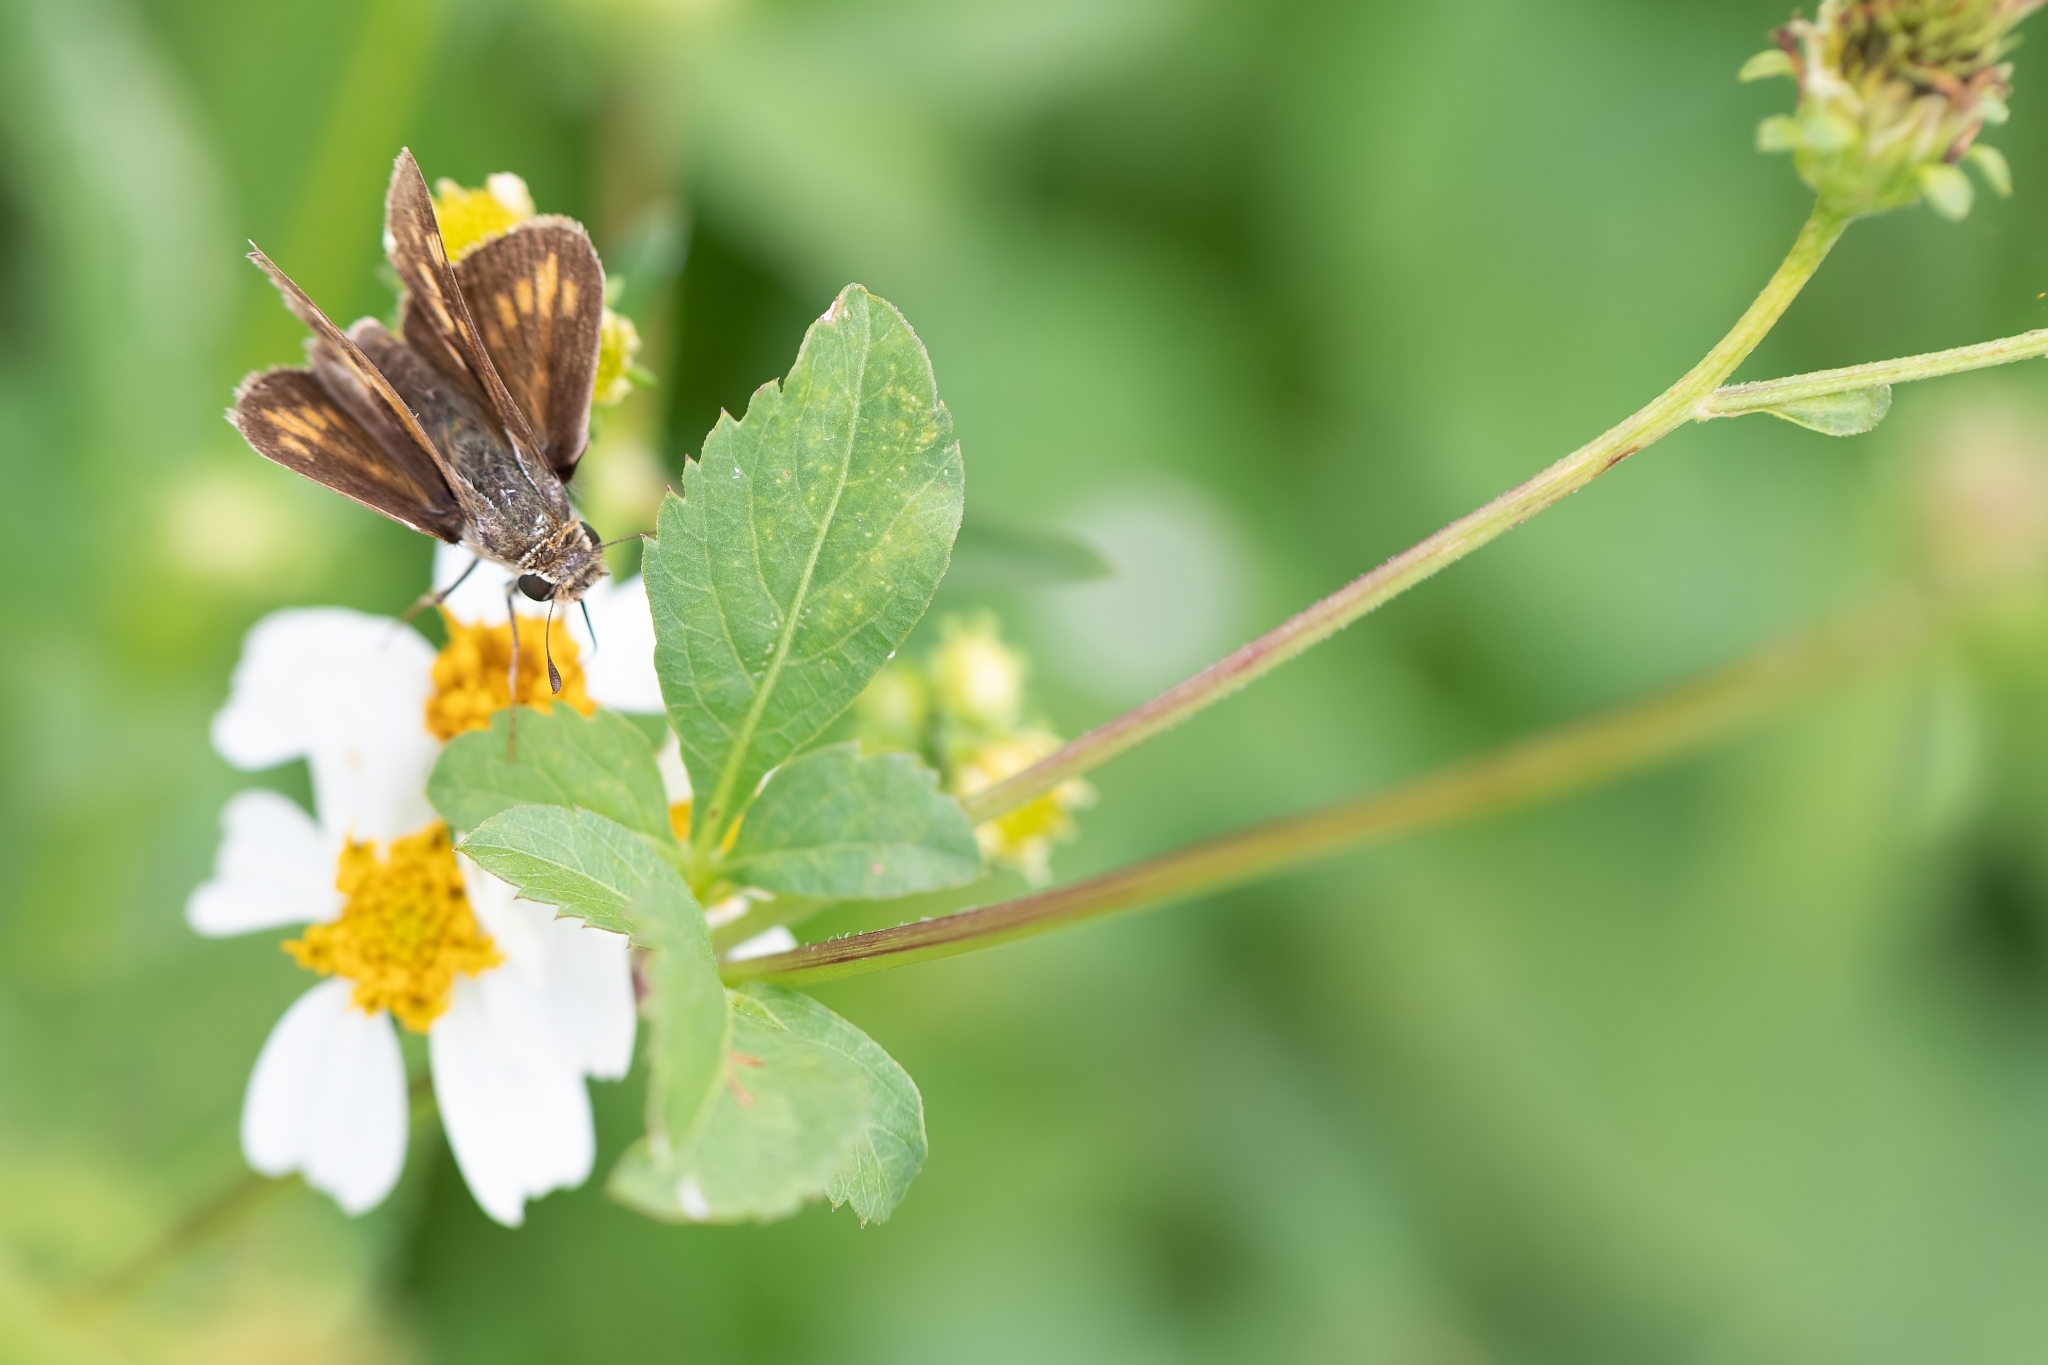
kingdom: Animalia
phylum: Arthropoda
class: Insecta
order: Lepidoptera
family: Hesperiidae
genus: Hylephila
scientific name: Hylephila phyleus
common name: Fiery skipper
